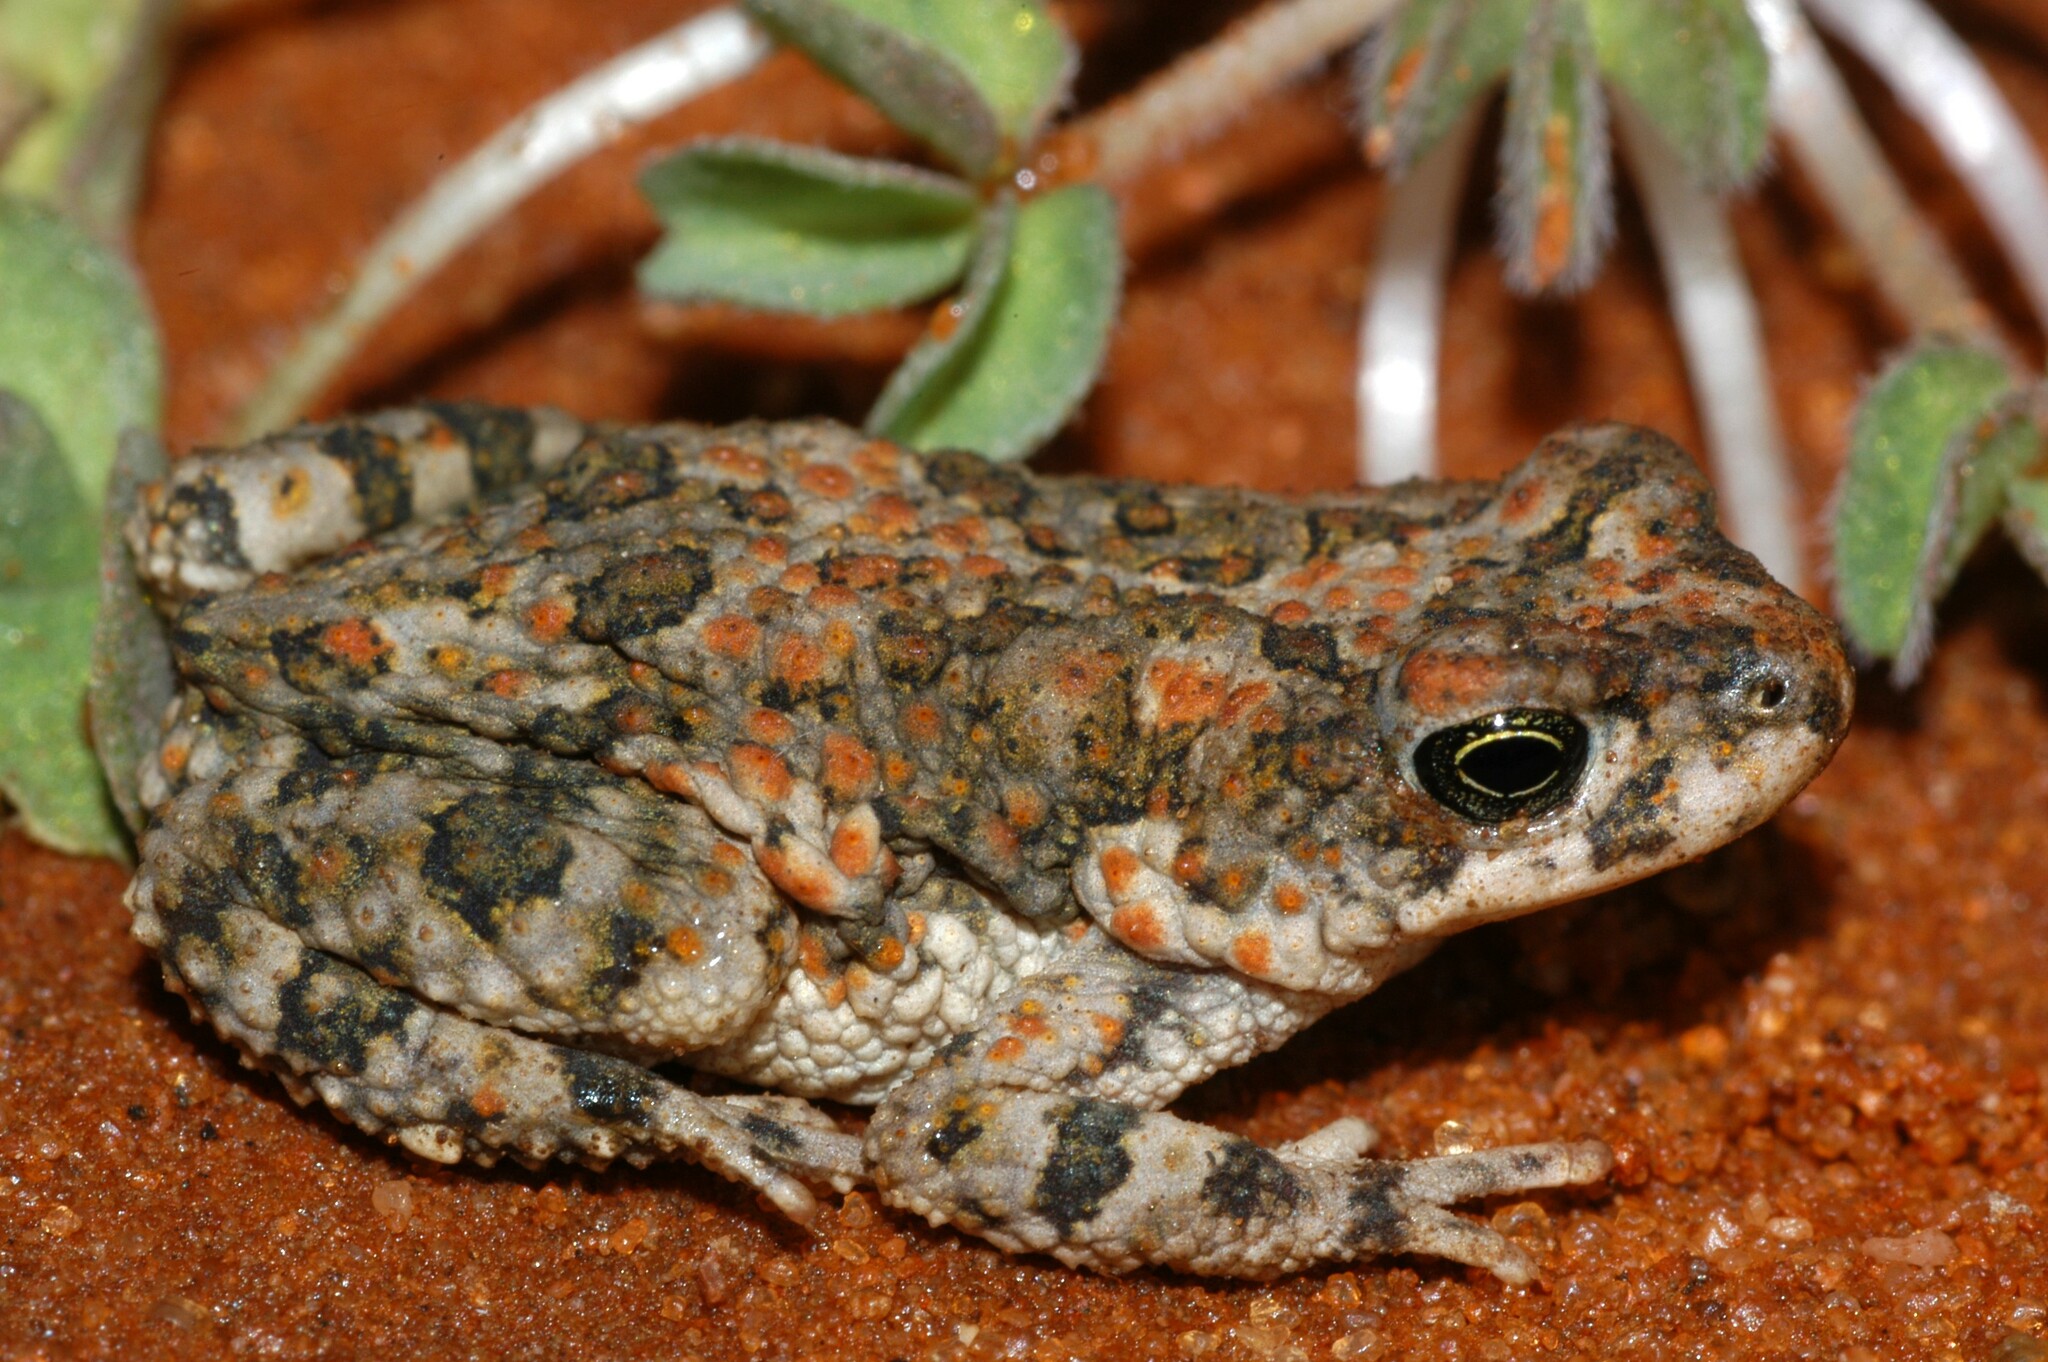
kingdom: Animalia
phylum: Chordata
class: Amphibia
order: Anura
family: Bufonidae
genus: Poyntonophrynus
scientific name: Poyntonophrynus fenoulheti
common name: Fenoulhet's toad
